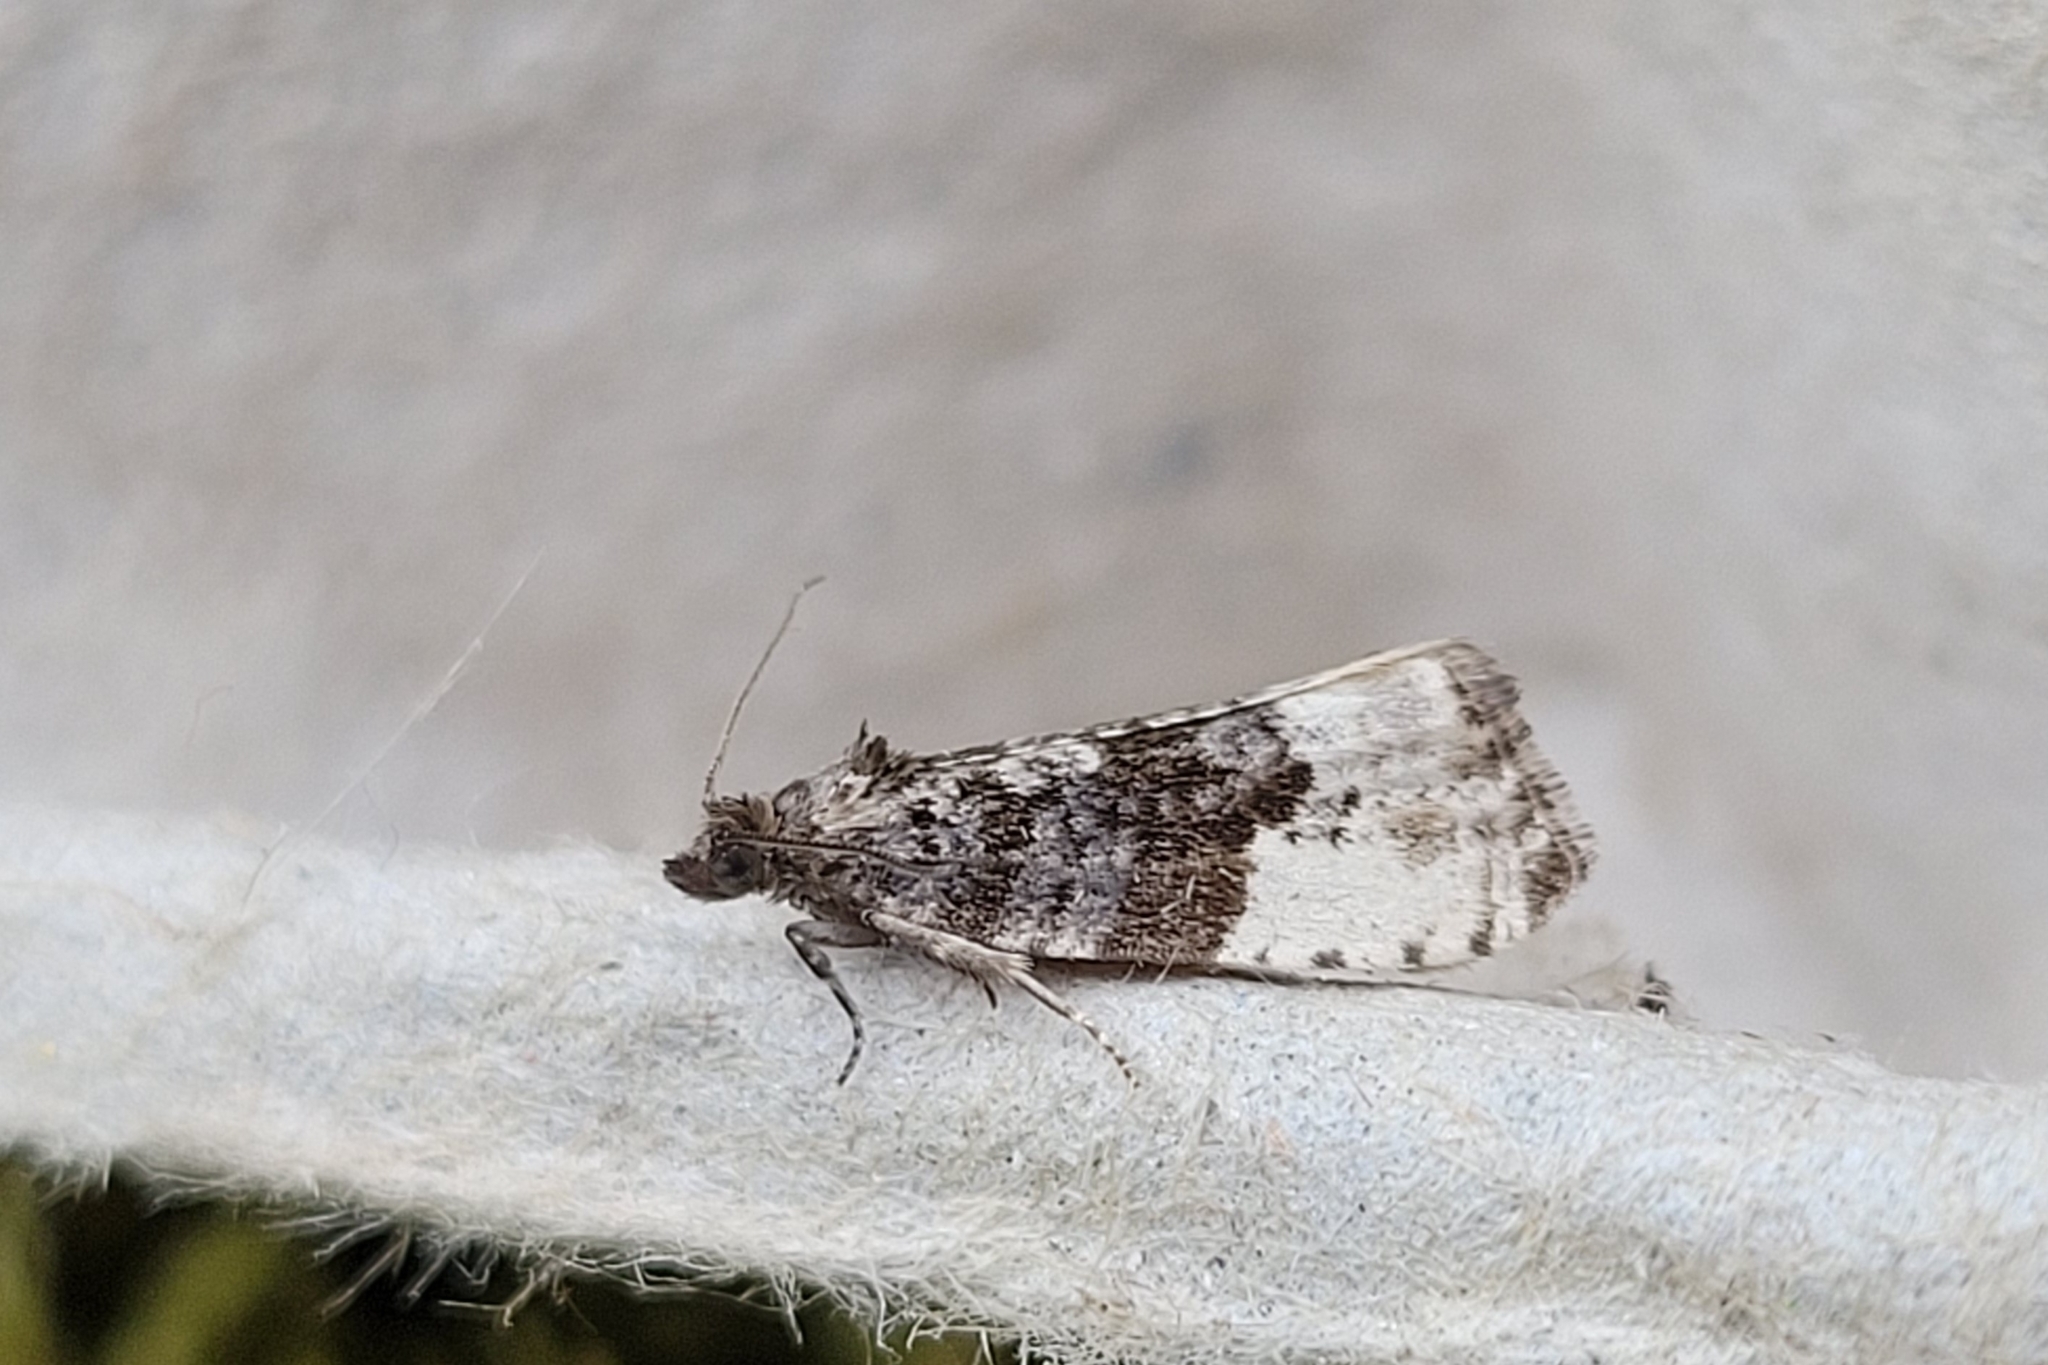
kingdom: Animalia
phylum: Arthropoda
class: Insecta
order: Lepidoptera
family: Tortricidae
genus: Hedya
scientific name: Hedya pruniana
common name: Plum tortrix
